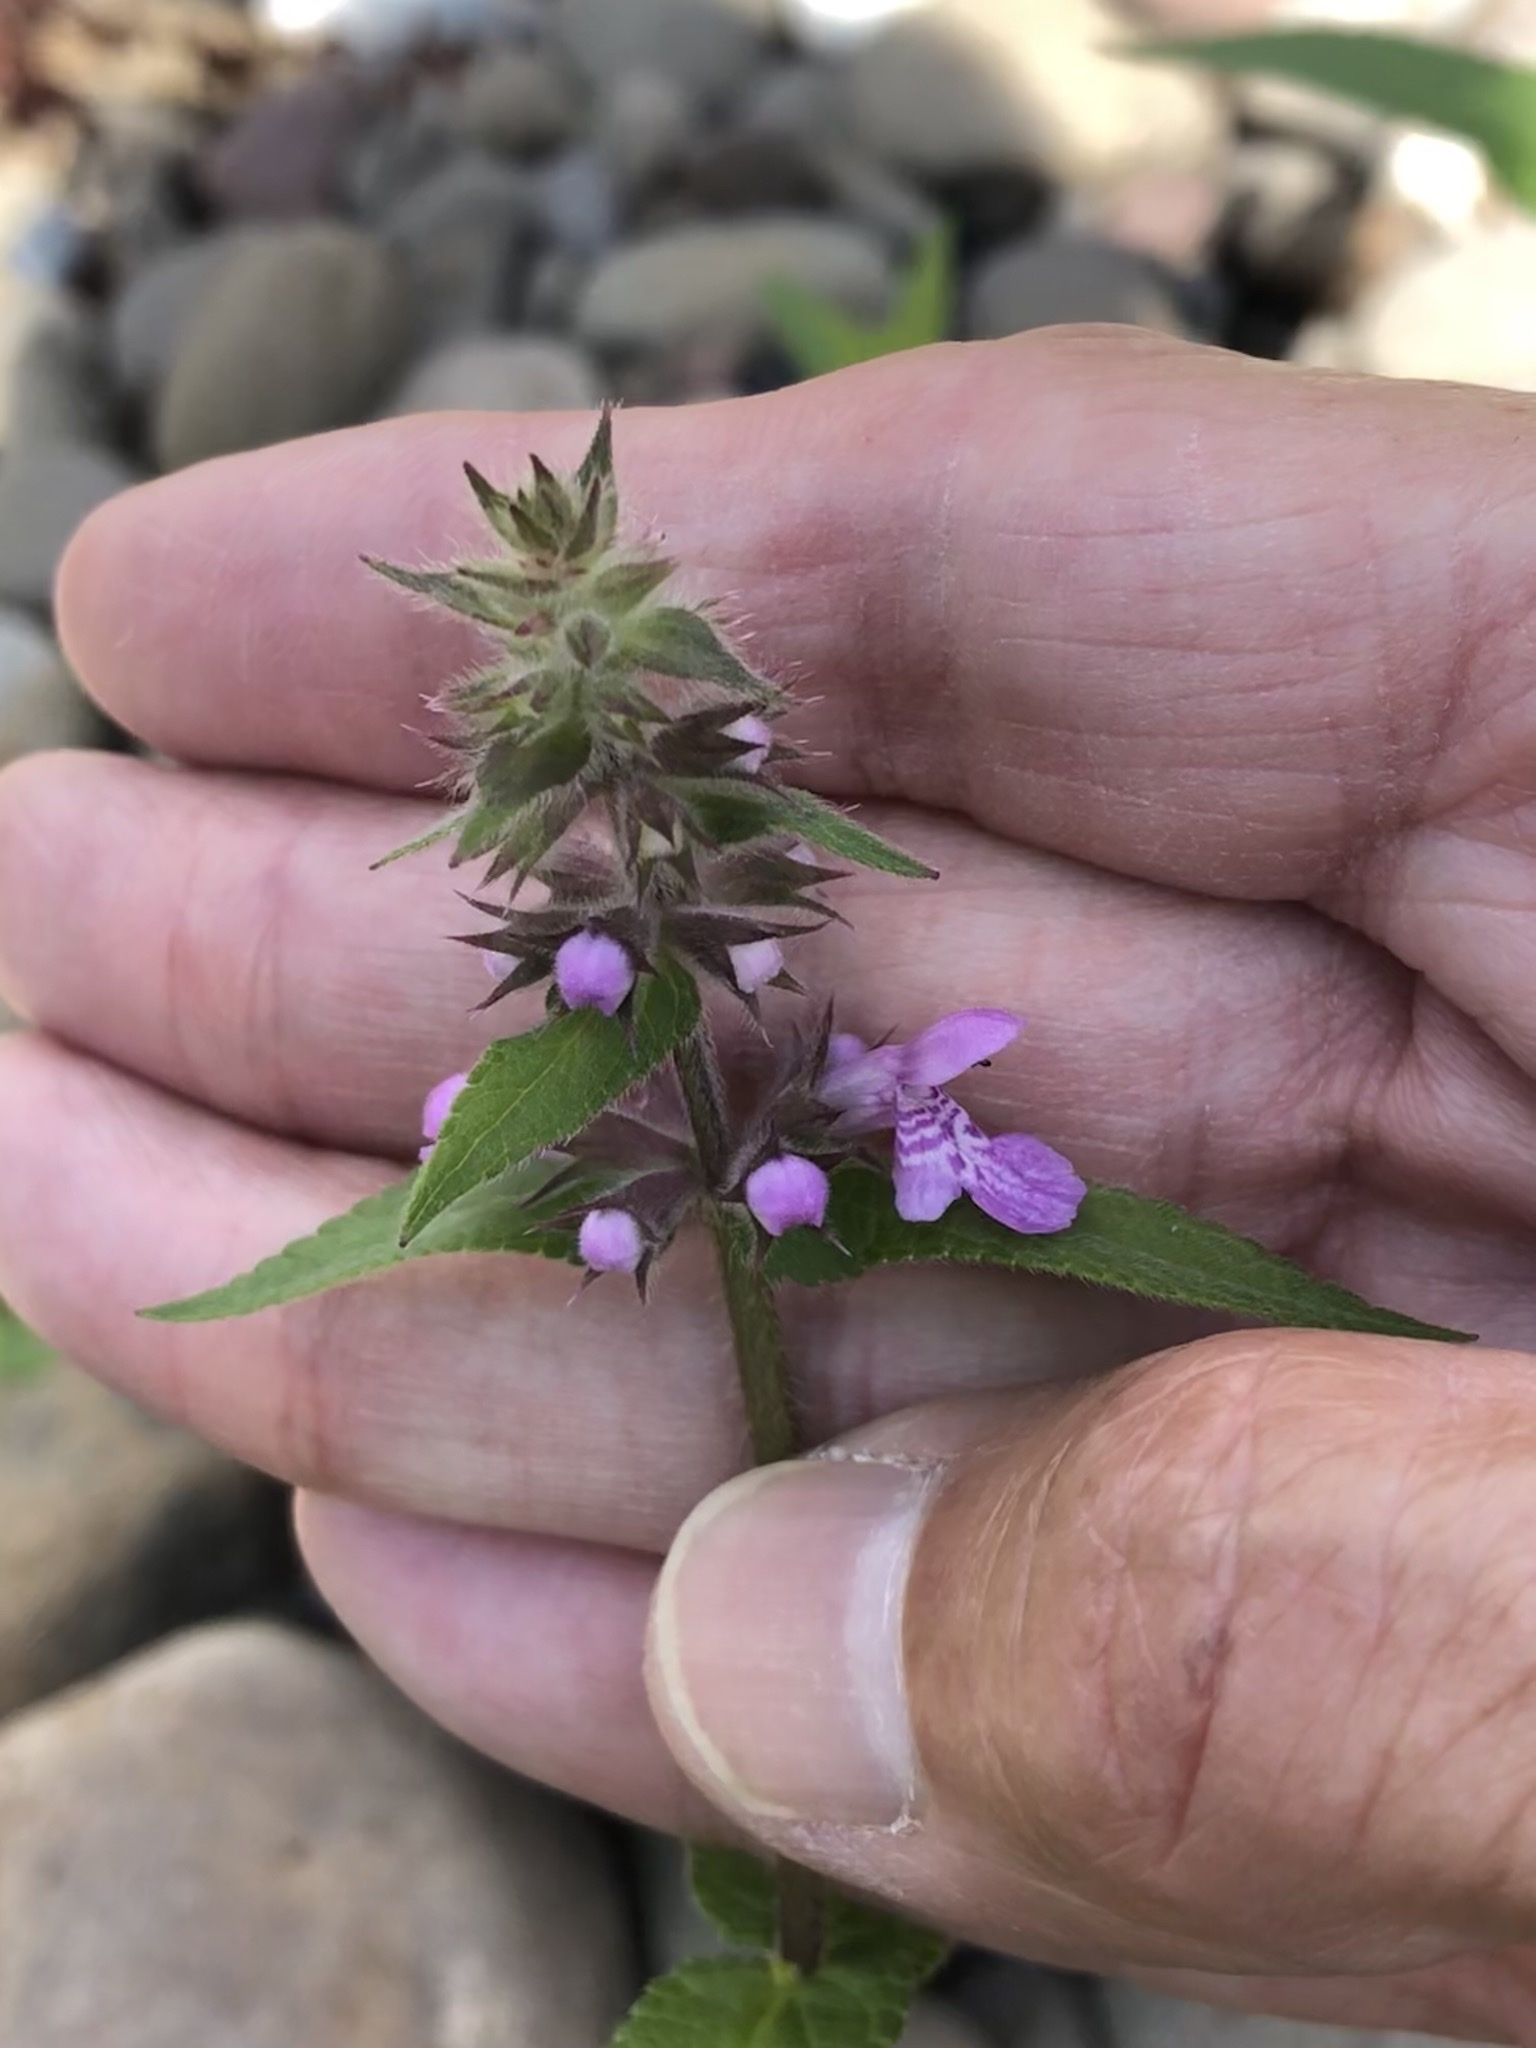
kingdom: Plantae
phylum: Tracheophyta
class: Magnoliopsida
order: Lamiales
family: Lamiaceae
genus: Stachys
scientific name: Stachys palustris
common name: Marsh woundwort
